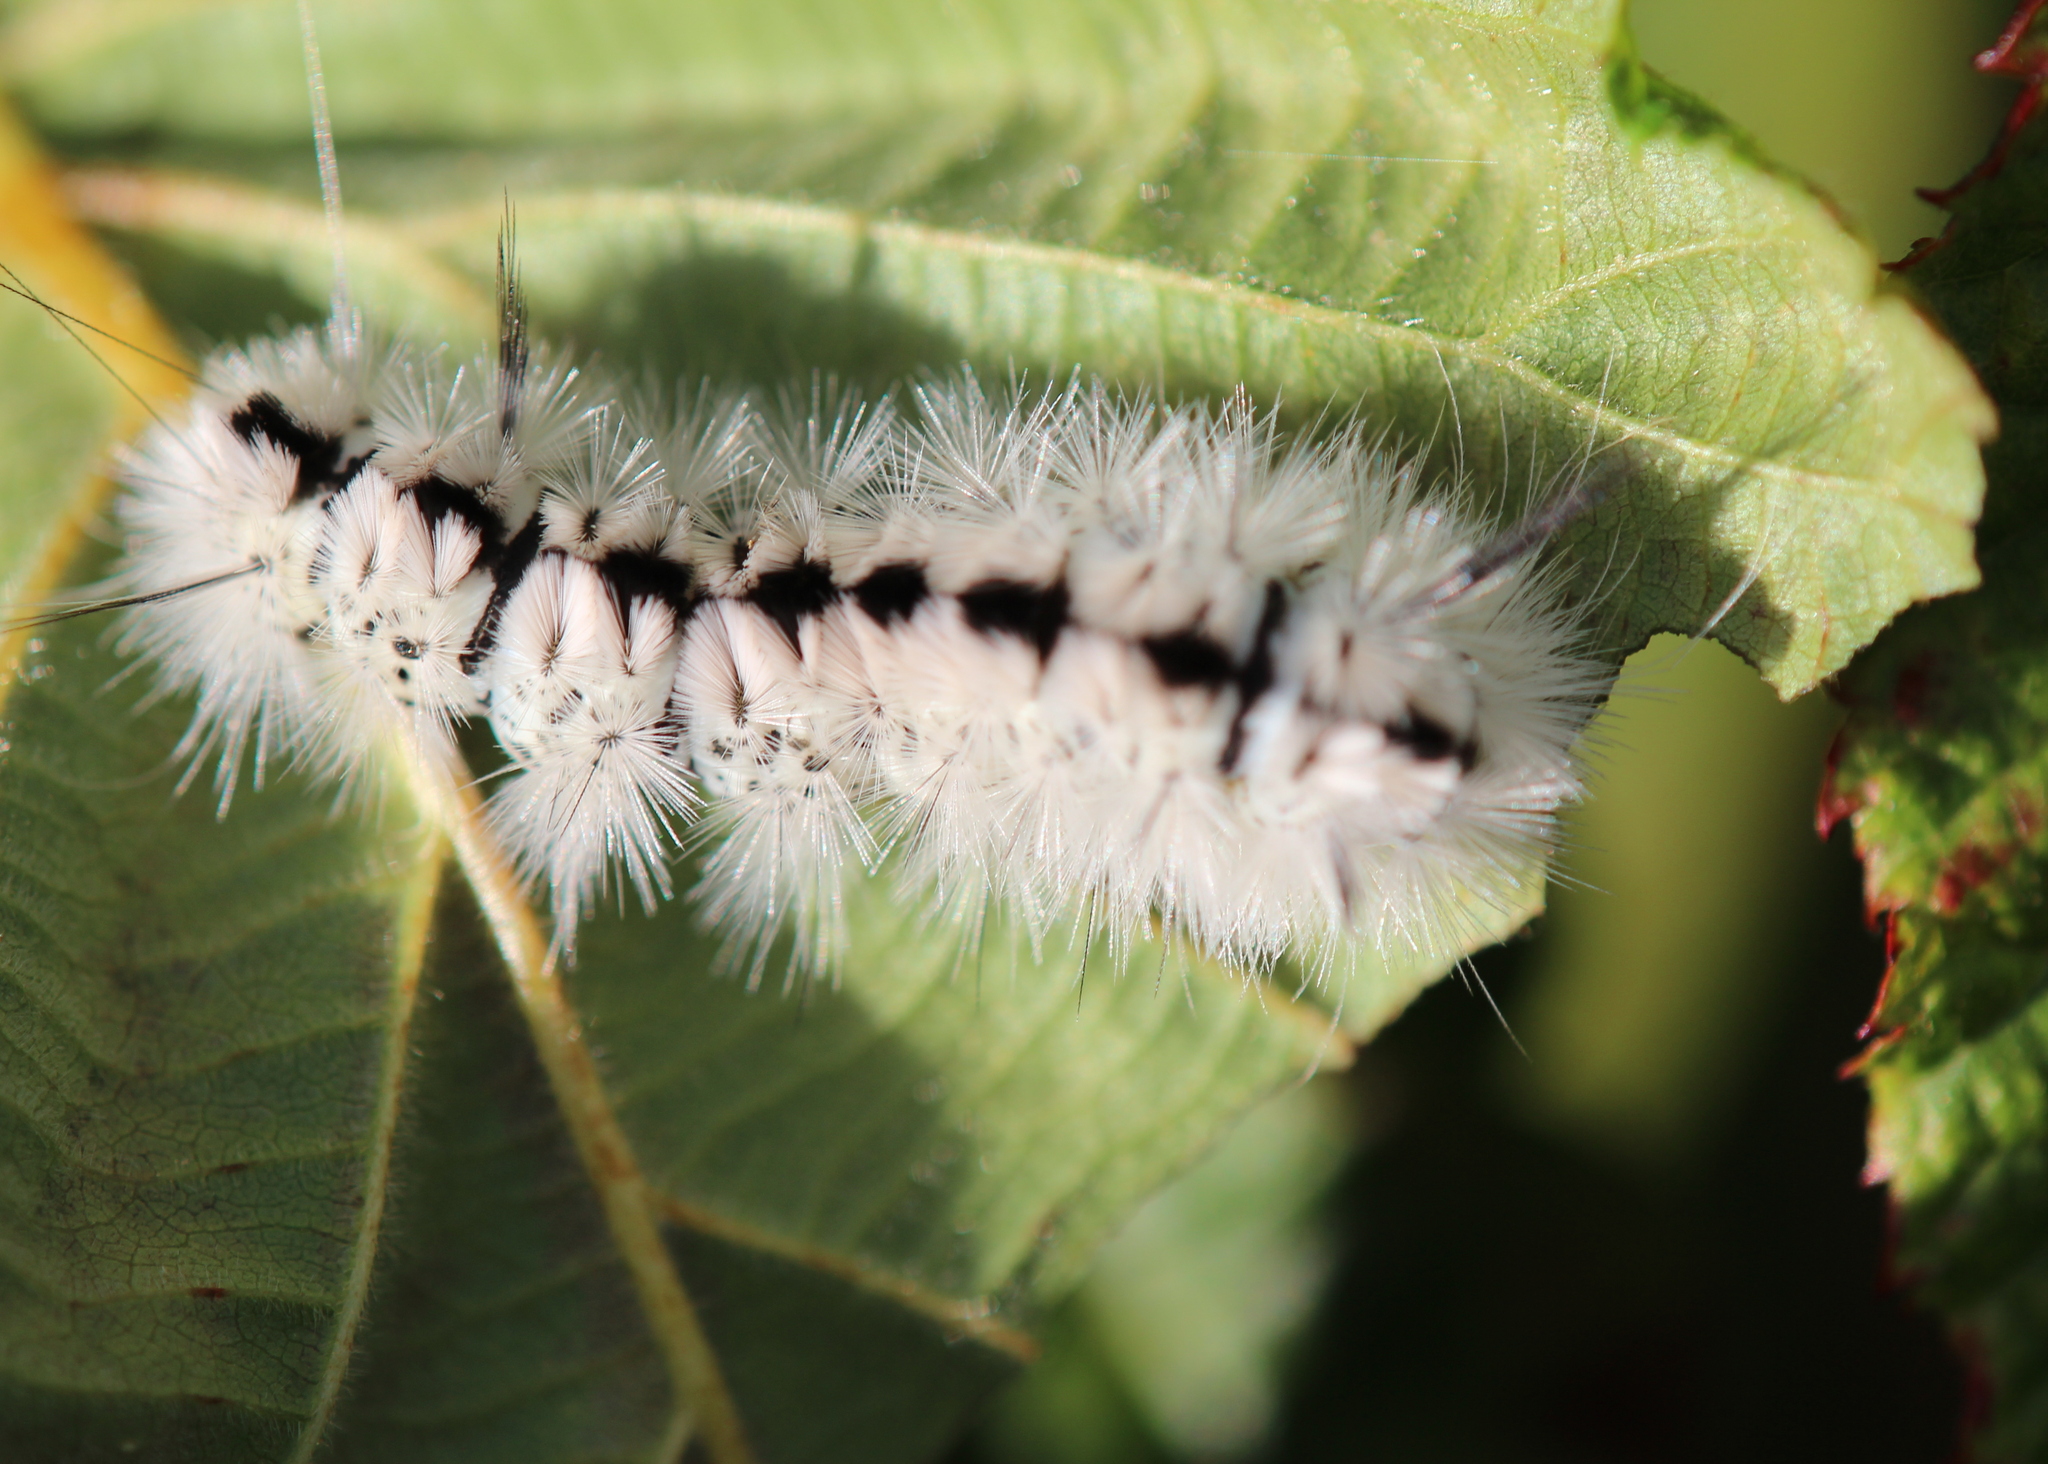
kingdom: Animalia
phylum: Arthropoda
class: Insecta
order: Lepidoptera
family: Erebidae
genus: Lophocampa
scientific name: Lophocampa caryae
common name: Hickory tussock moth
